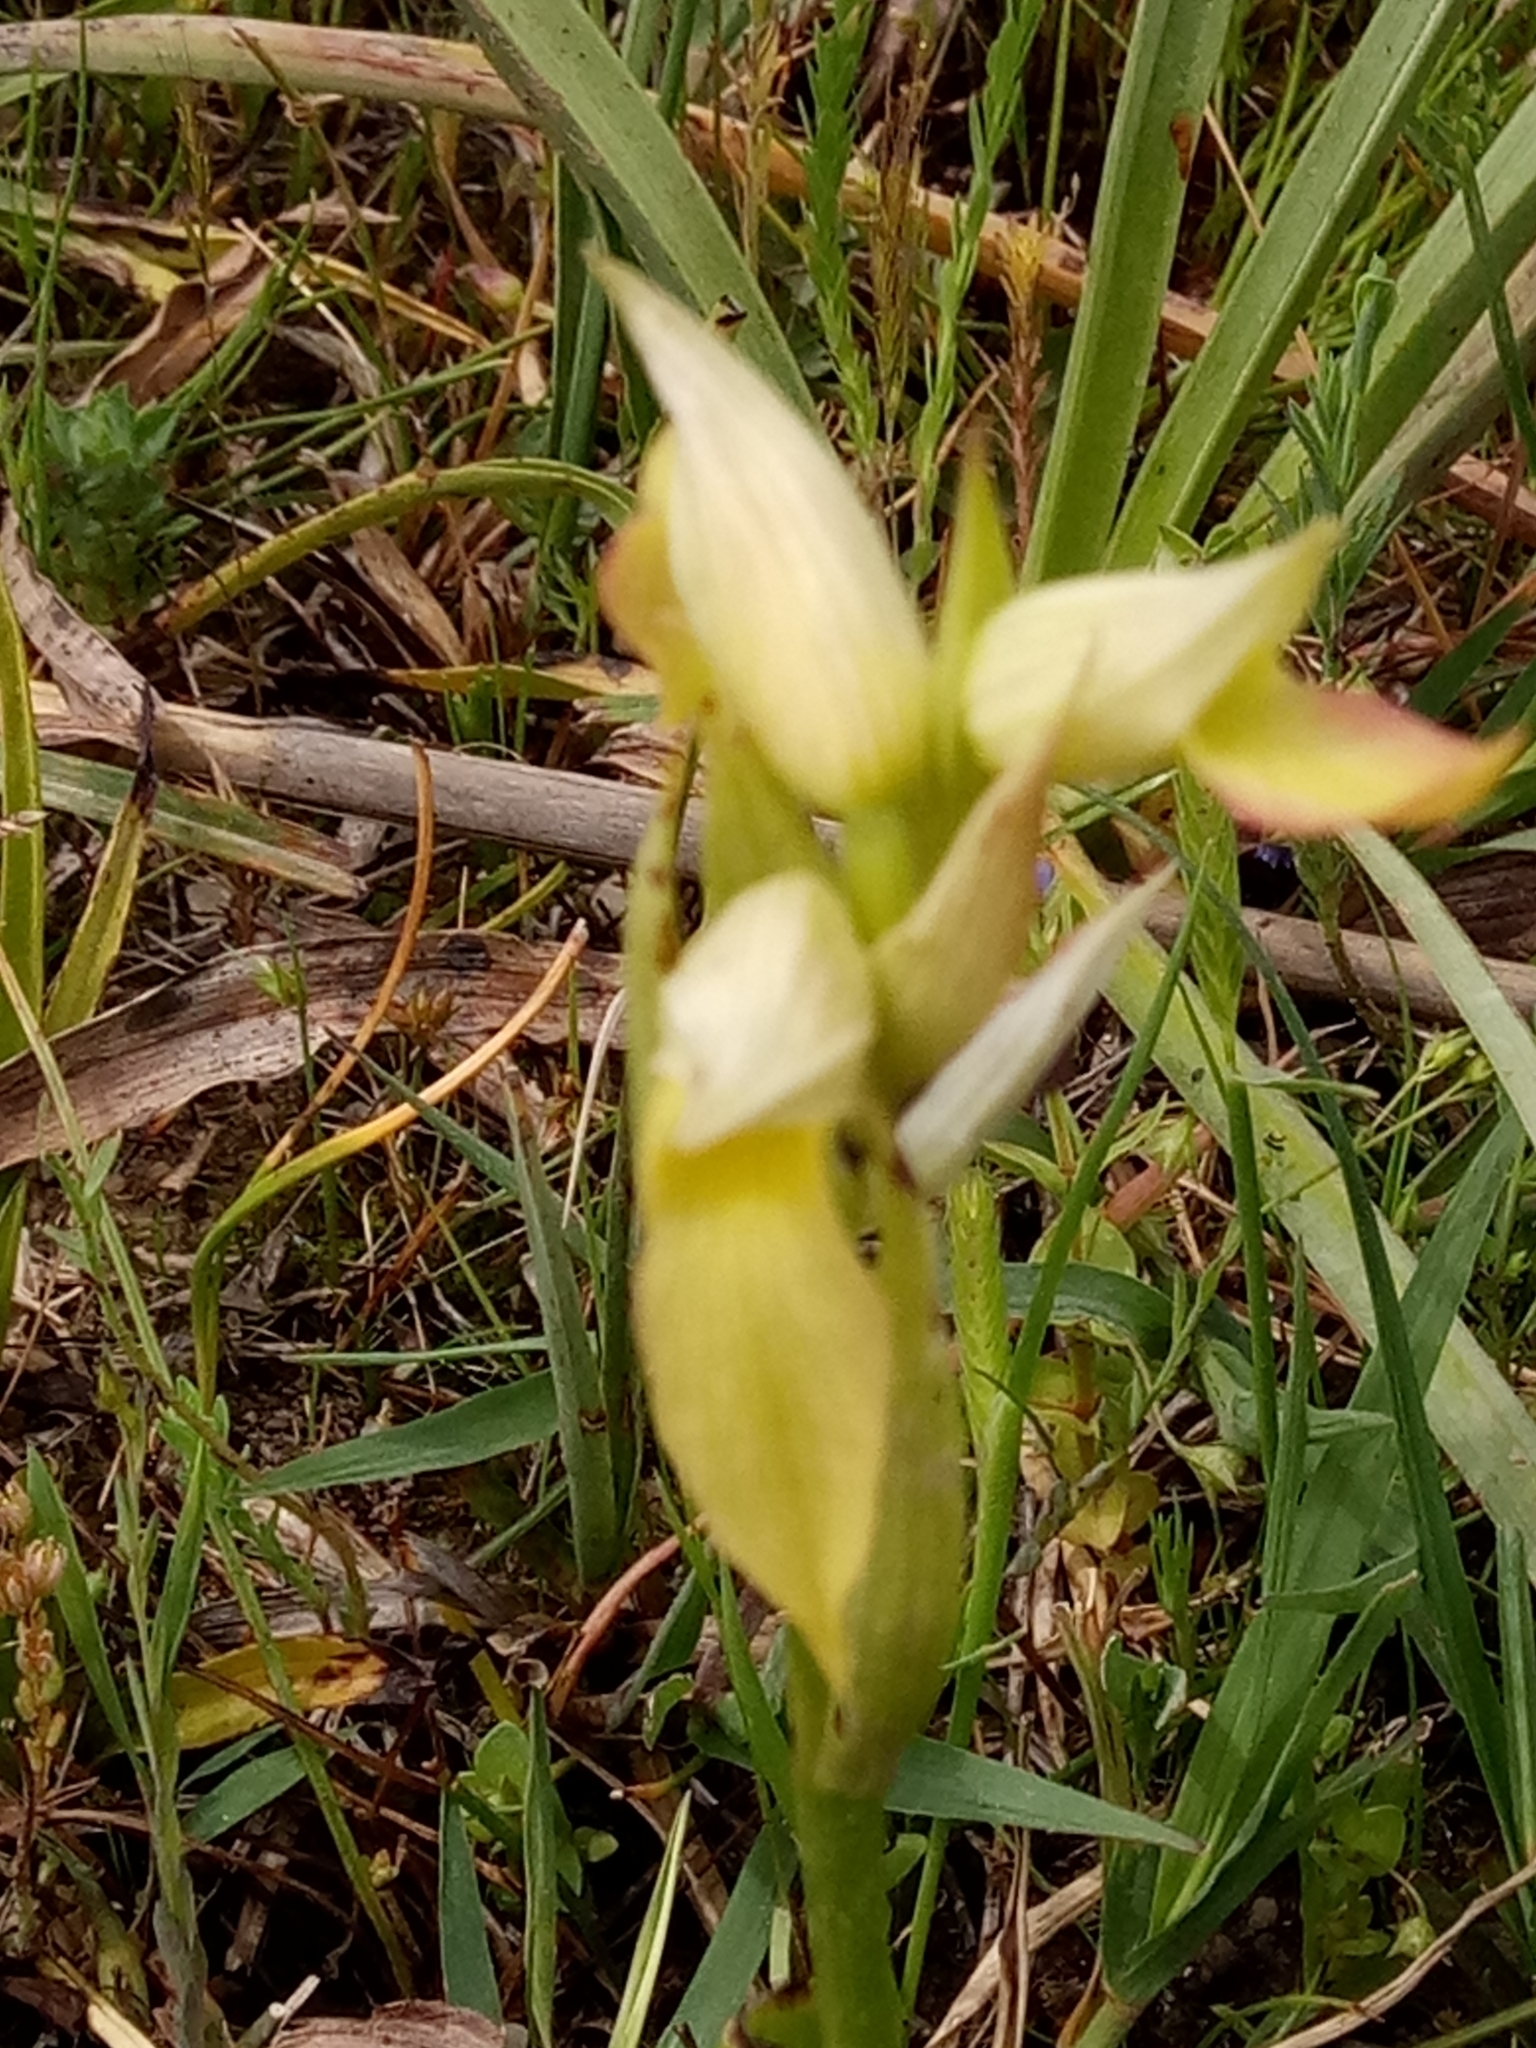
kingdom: Plantae
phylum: Tracheophyta
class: Liliopsida
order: Asparagales
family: Orchidaceae
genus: Serapias
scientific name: Serapias lingua
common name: Tongue-orchid
